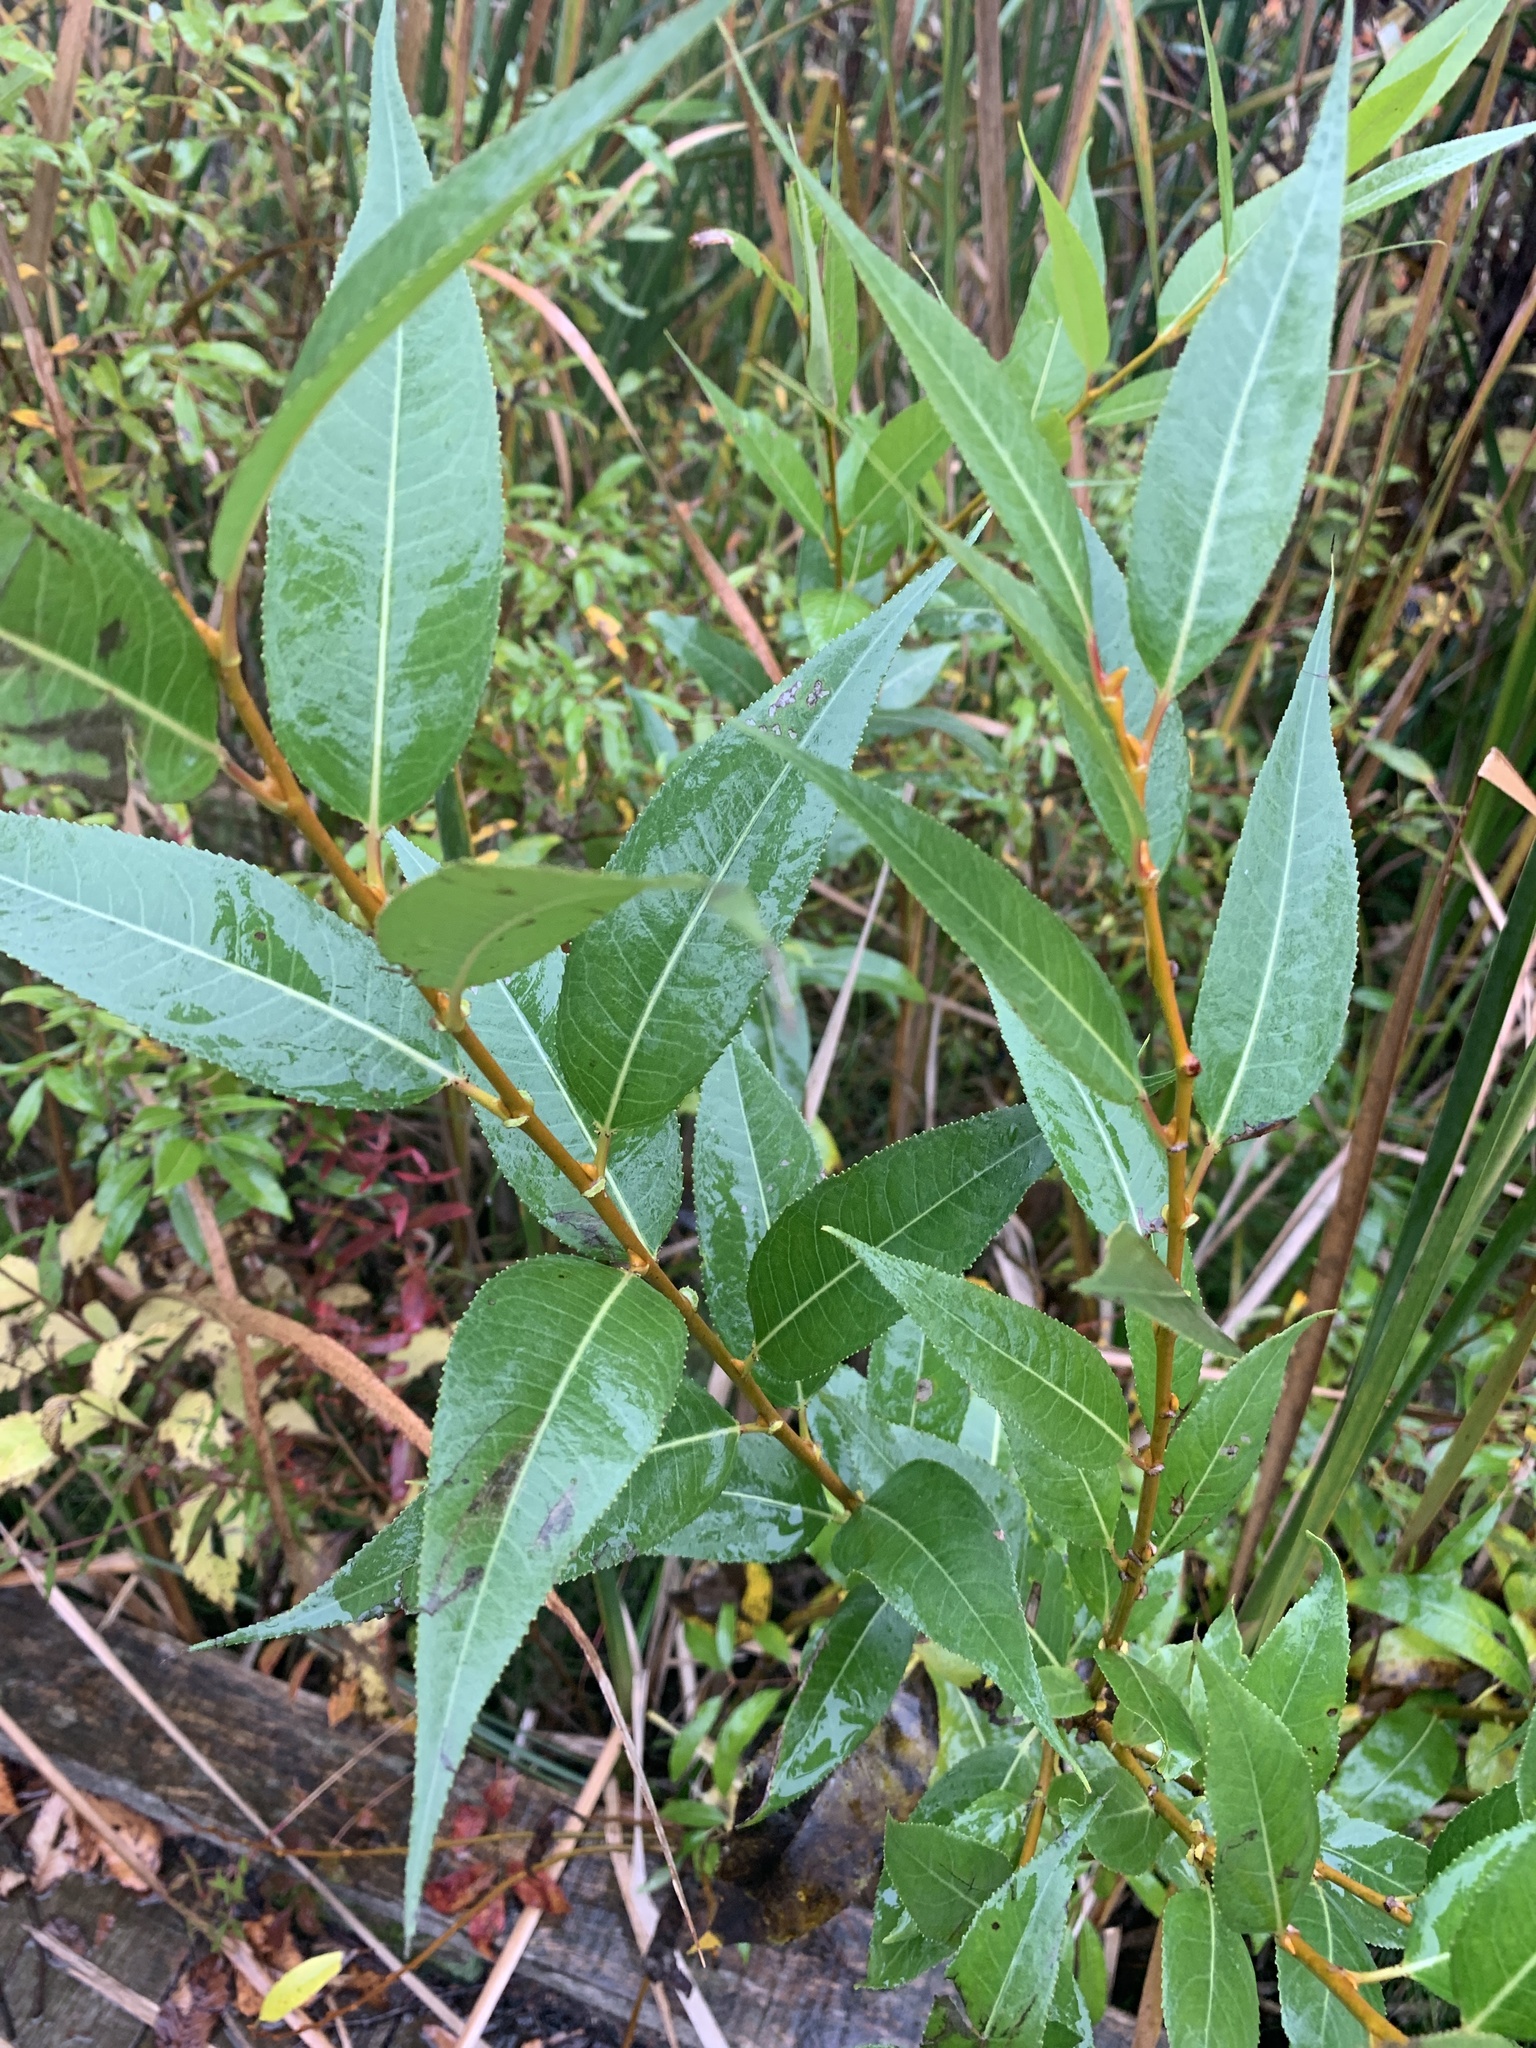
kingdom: Plantae
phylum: Tracheophyta
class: Magnoliopsida
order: Malpighiales
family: Salicaceae
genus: Salix
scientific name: Salix lucida
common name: Shining willow
